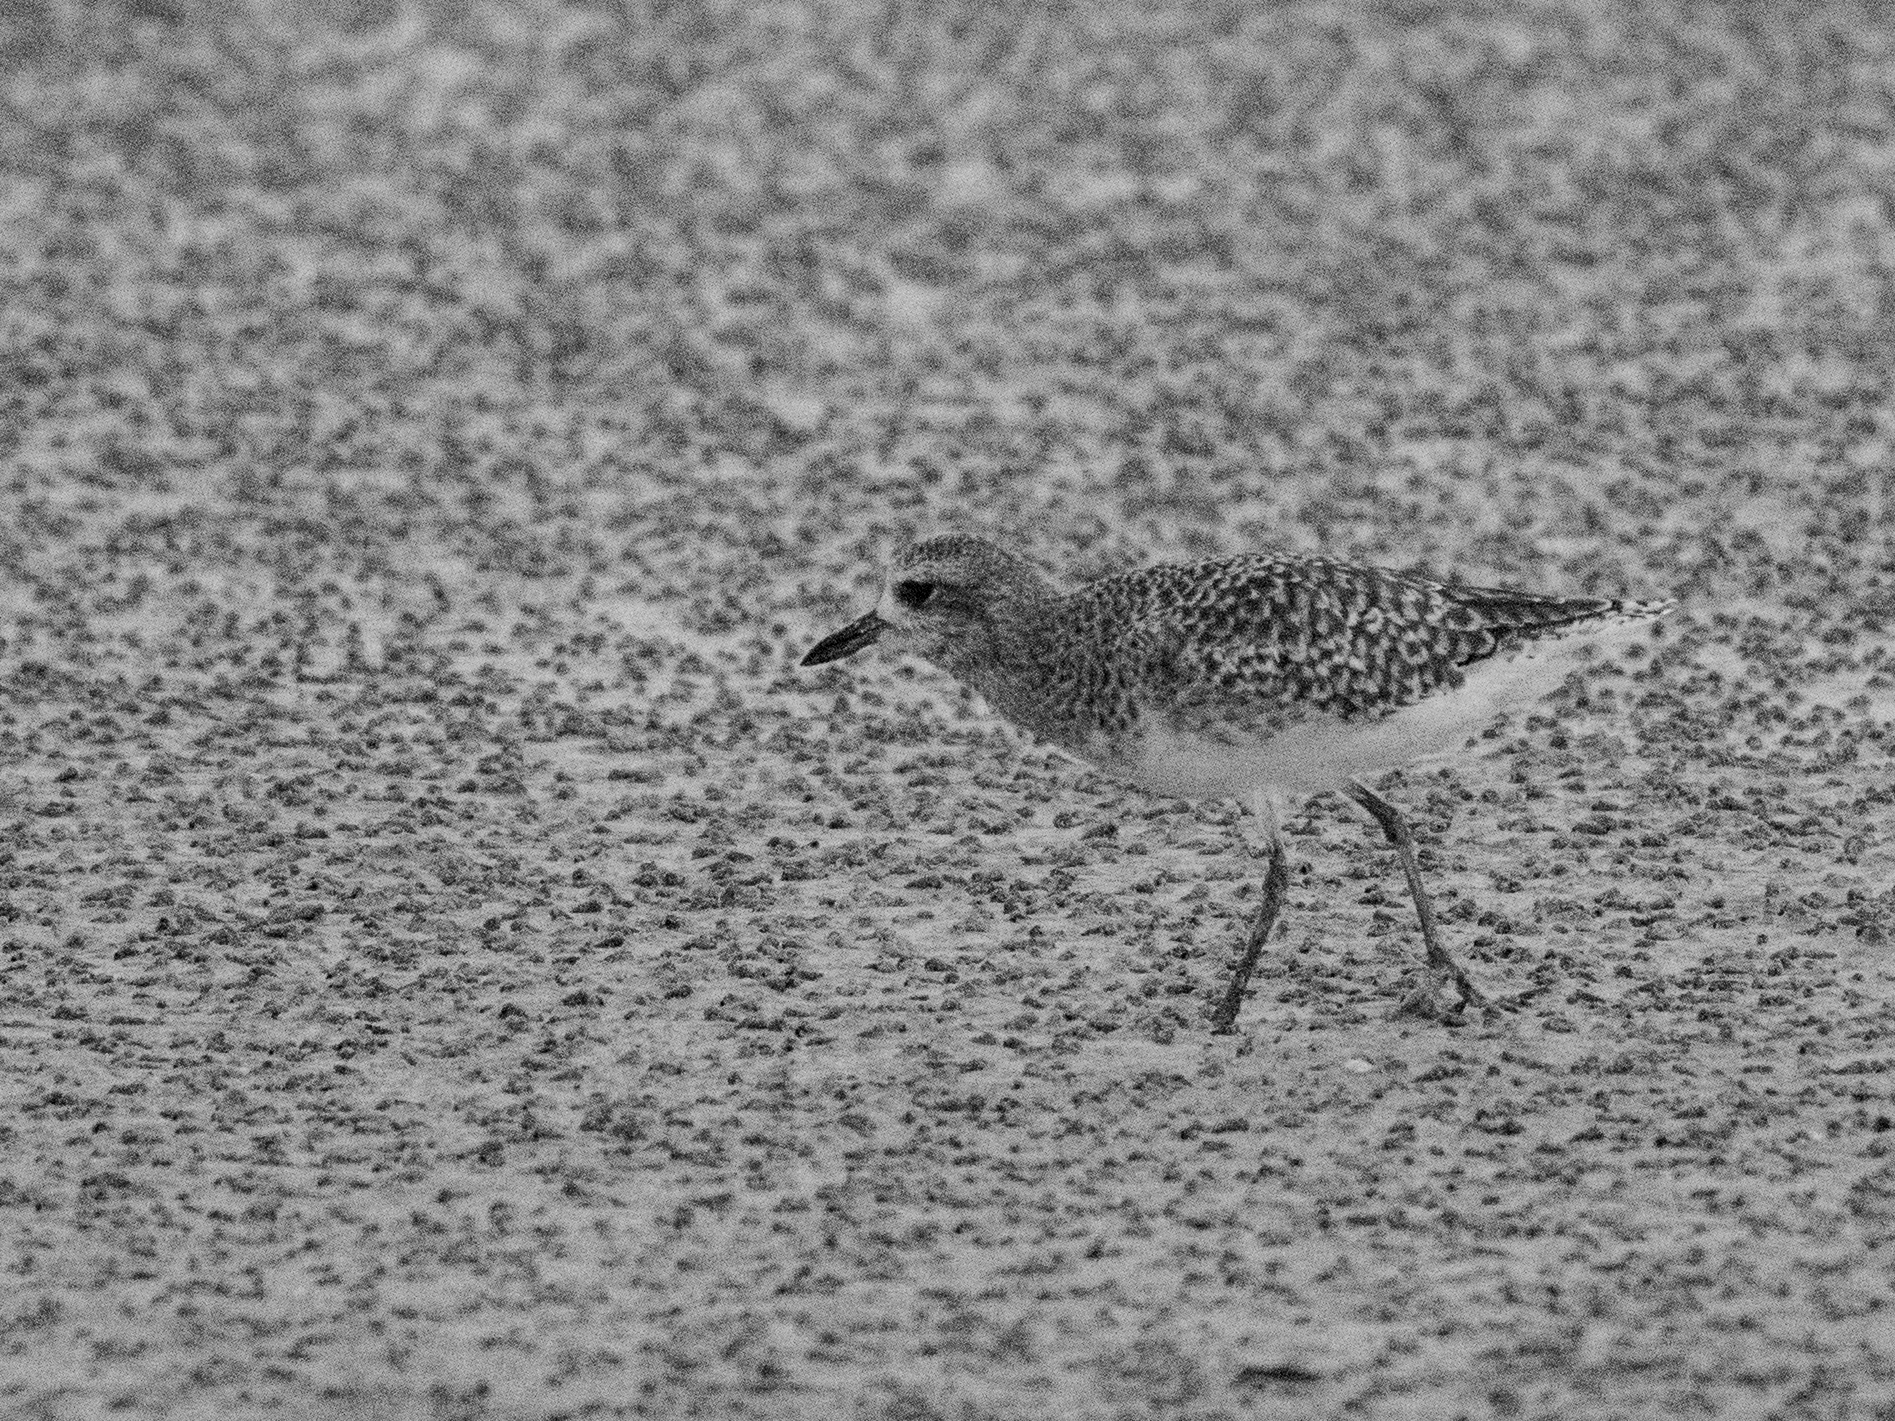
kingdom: Animalia
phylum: Chordata
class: Aves
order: Charadriiformes
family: Charadriidae
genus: Pluvialis
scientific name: Pluvialis squatarola
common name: Grey plover
